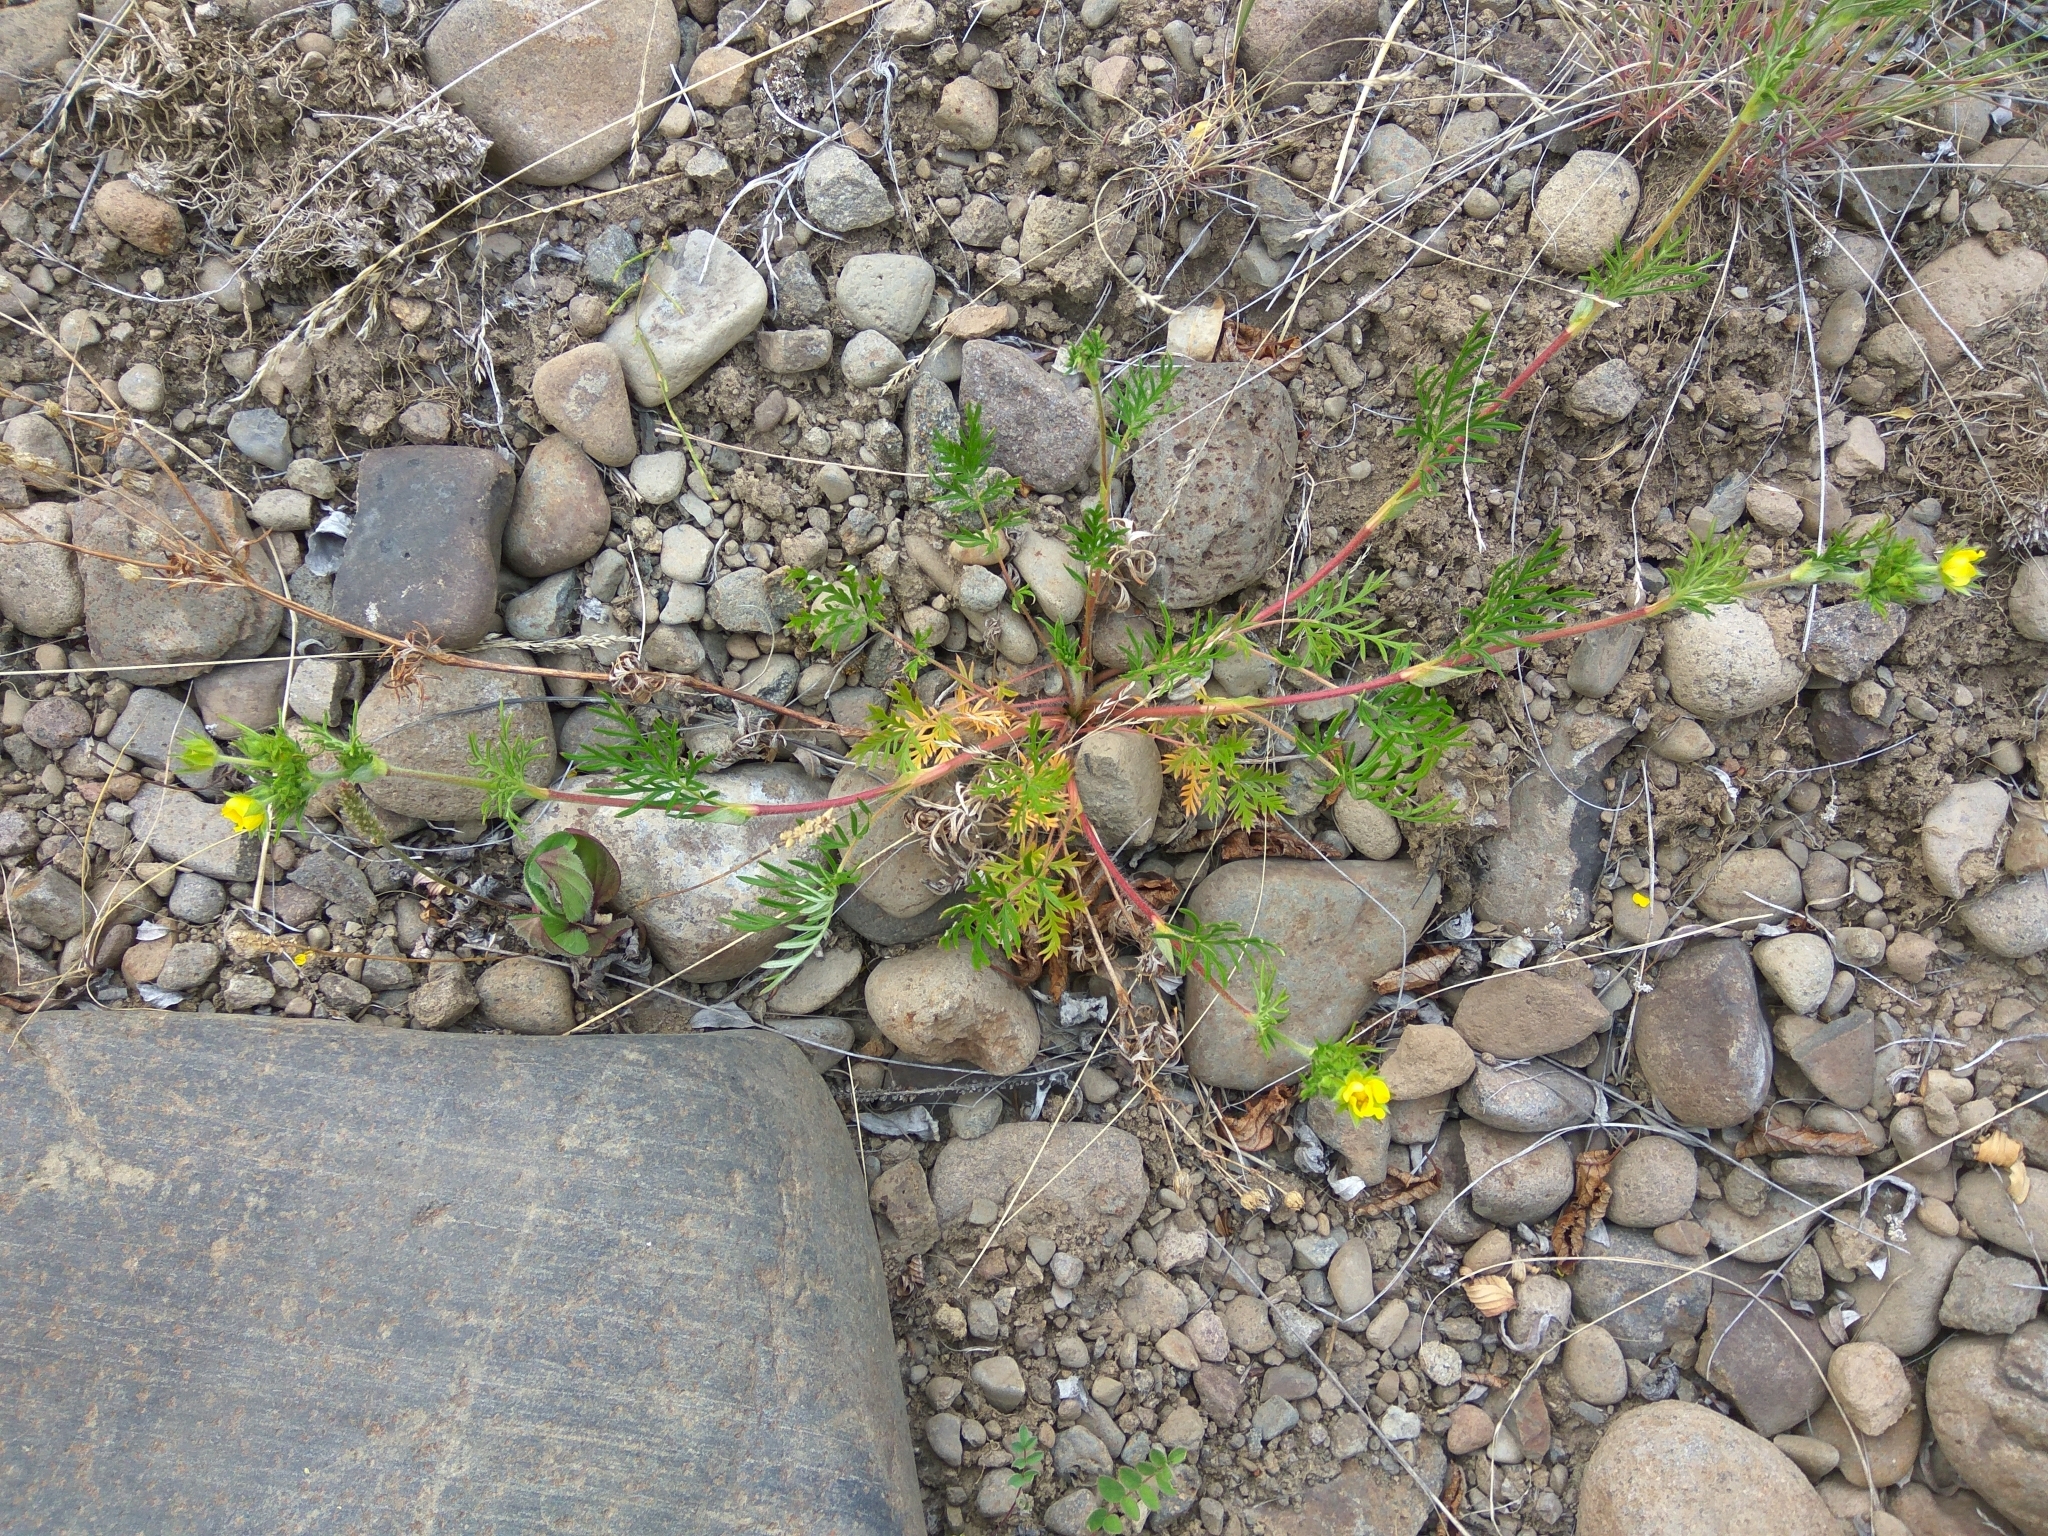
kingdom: Plantae
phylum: Tracheophyta
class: Magnoliopsida
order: Rosales
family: Rosaceae
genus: Potentilla
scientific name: Potentilla tergemina
